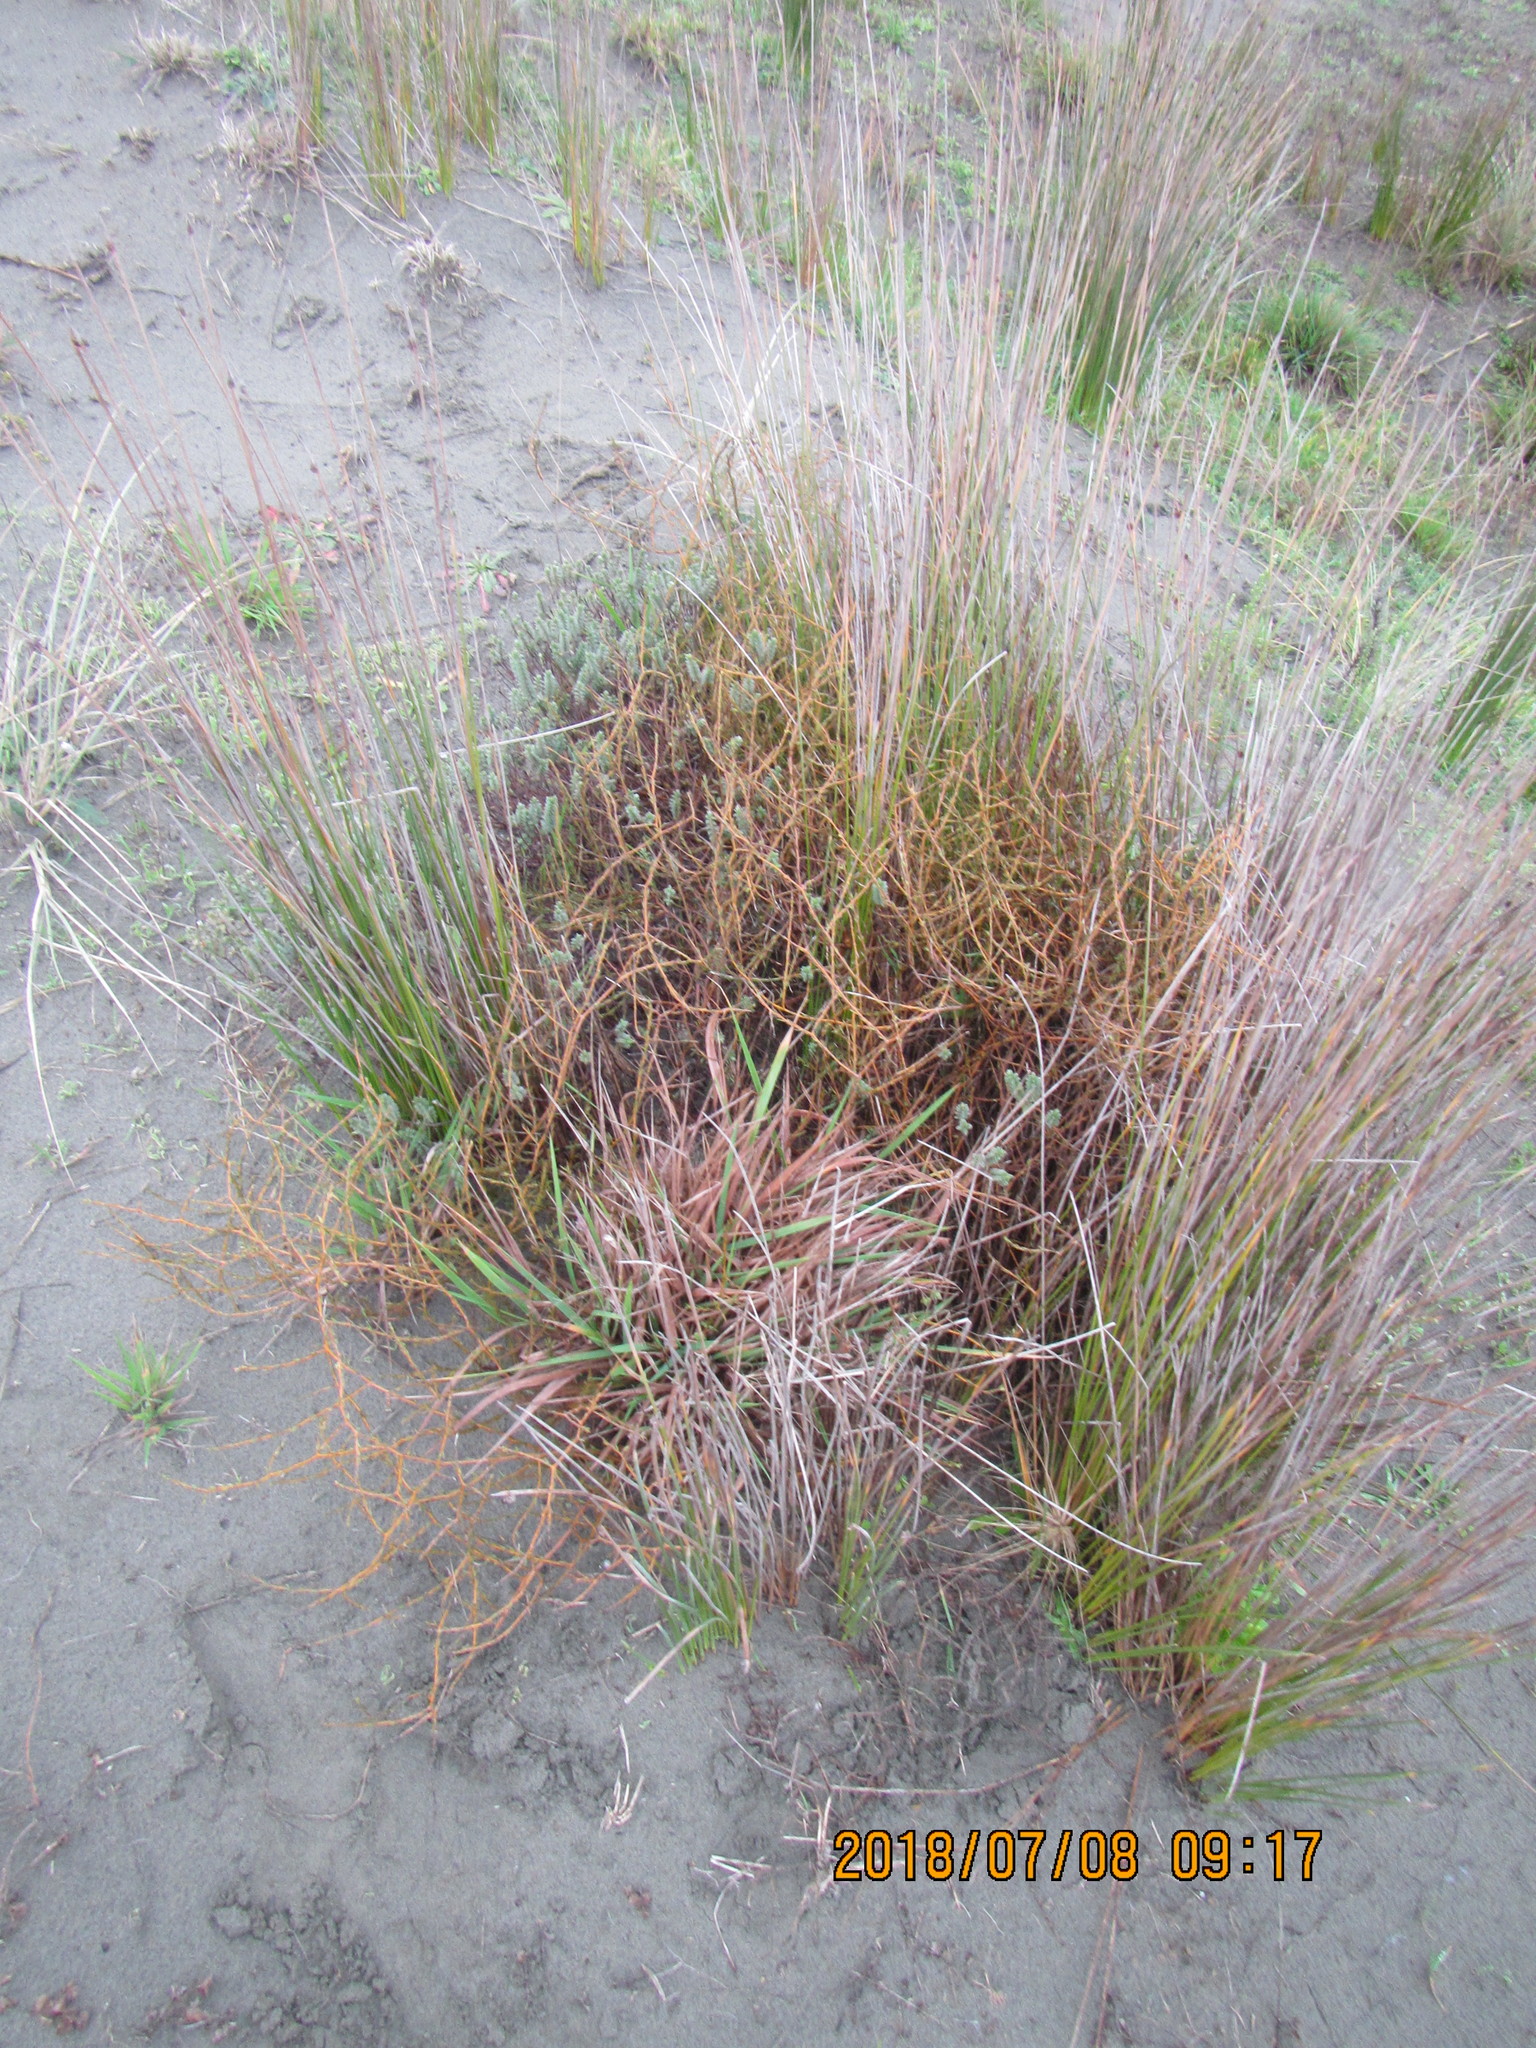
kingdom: Plantae
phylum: Tracheophyta
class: Liliopsida
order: Poales
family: Poaceae
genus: Lachnagrostis
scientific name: Lachnagrostis billardierei
